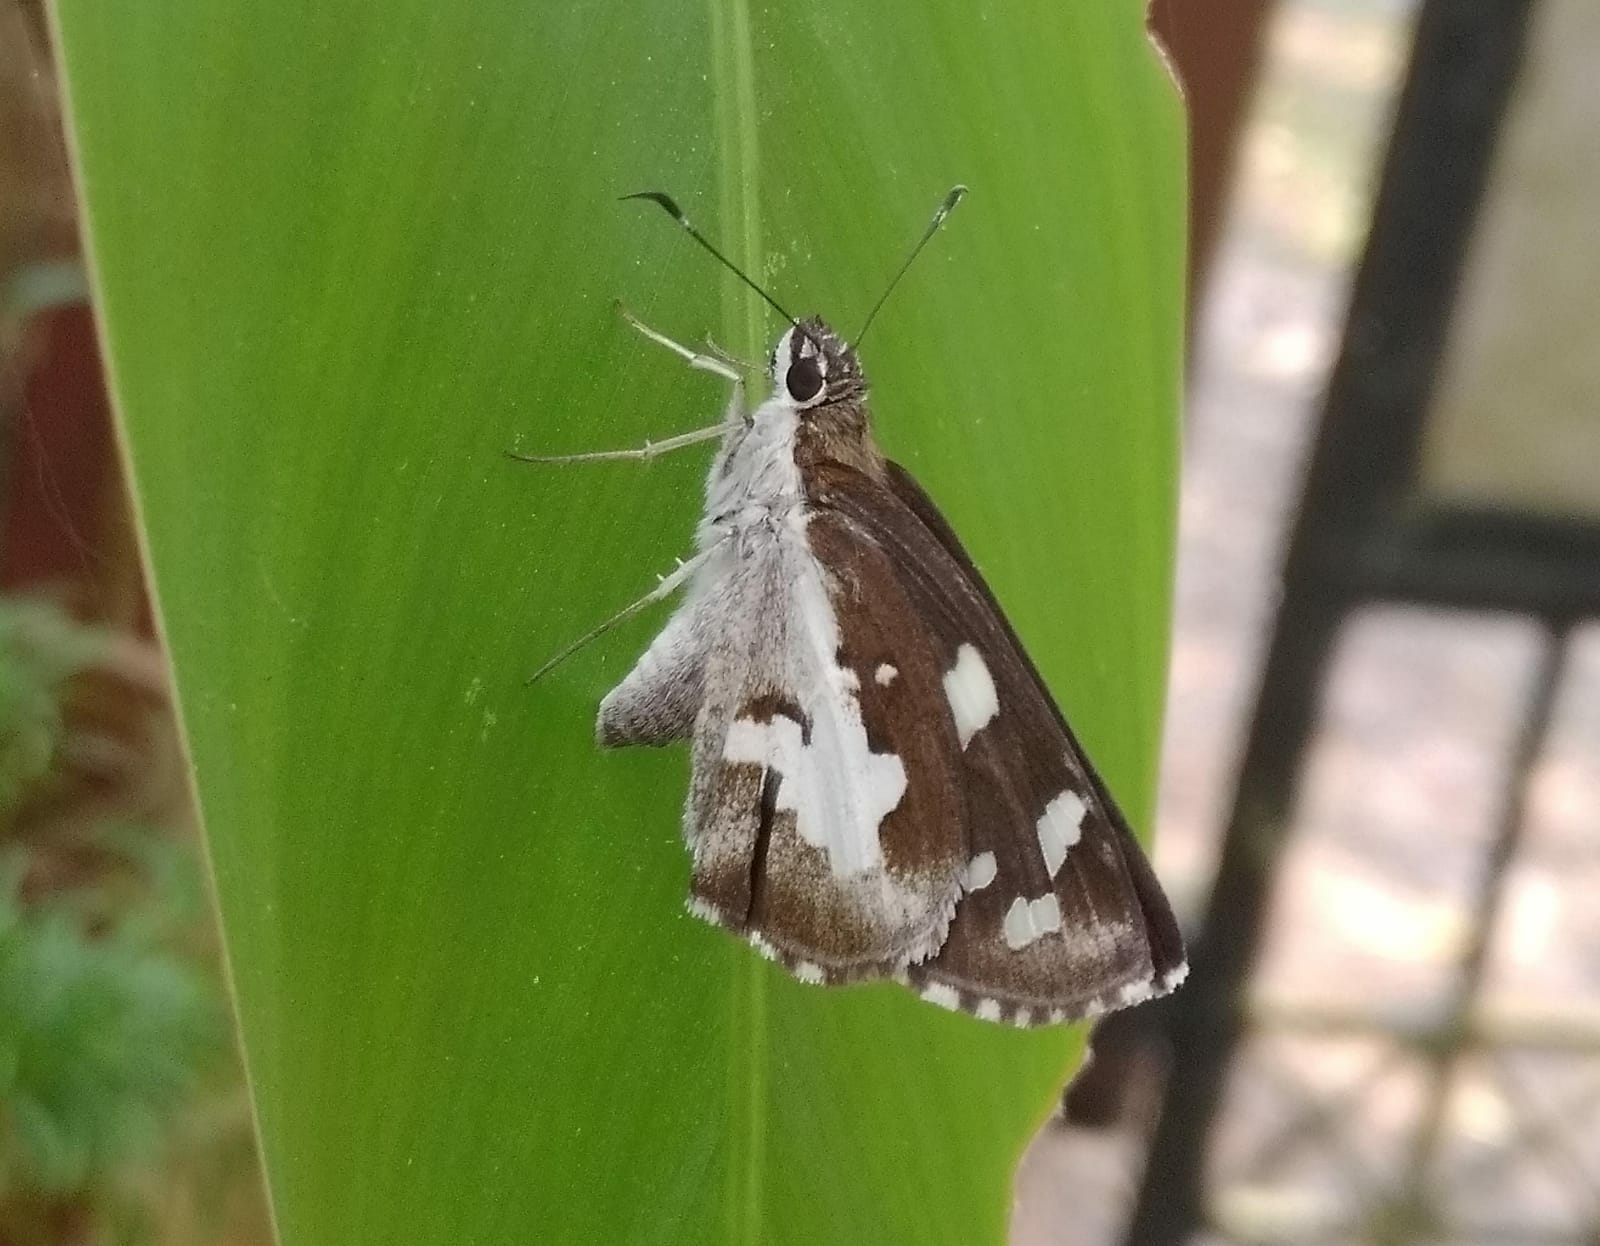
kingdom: Animalia
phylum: Arthropoda
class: Insecta
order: Lepidoptera
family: Hesperiidae
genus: Udaspes
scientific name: Udaspes folus
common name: Grass demon
